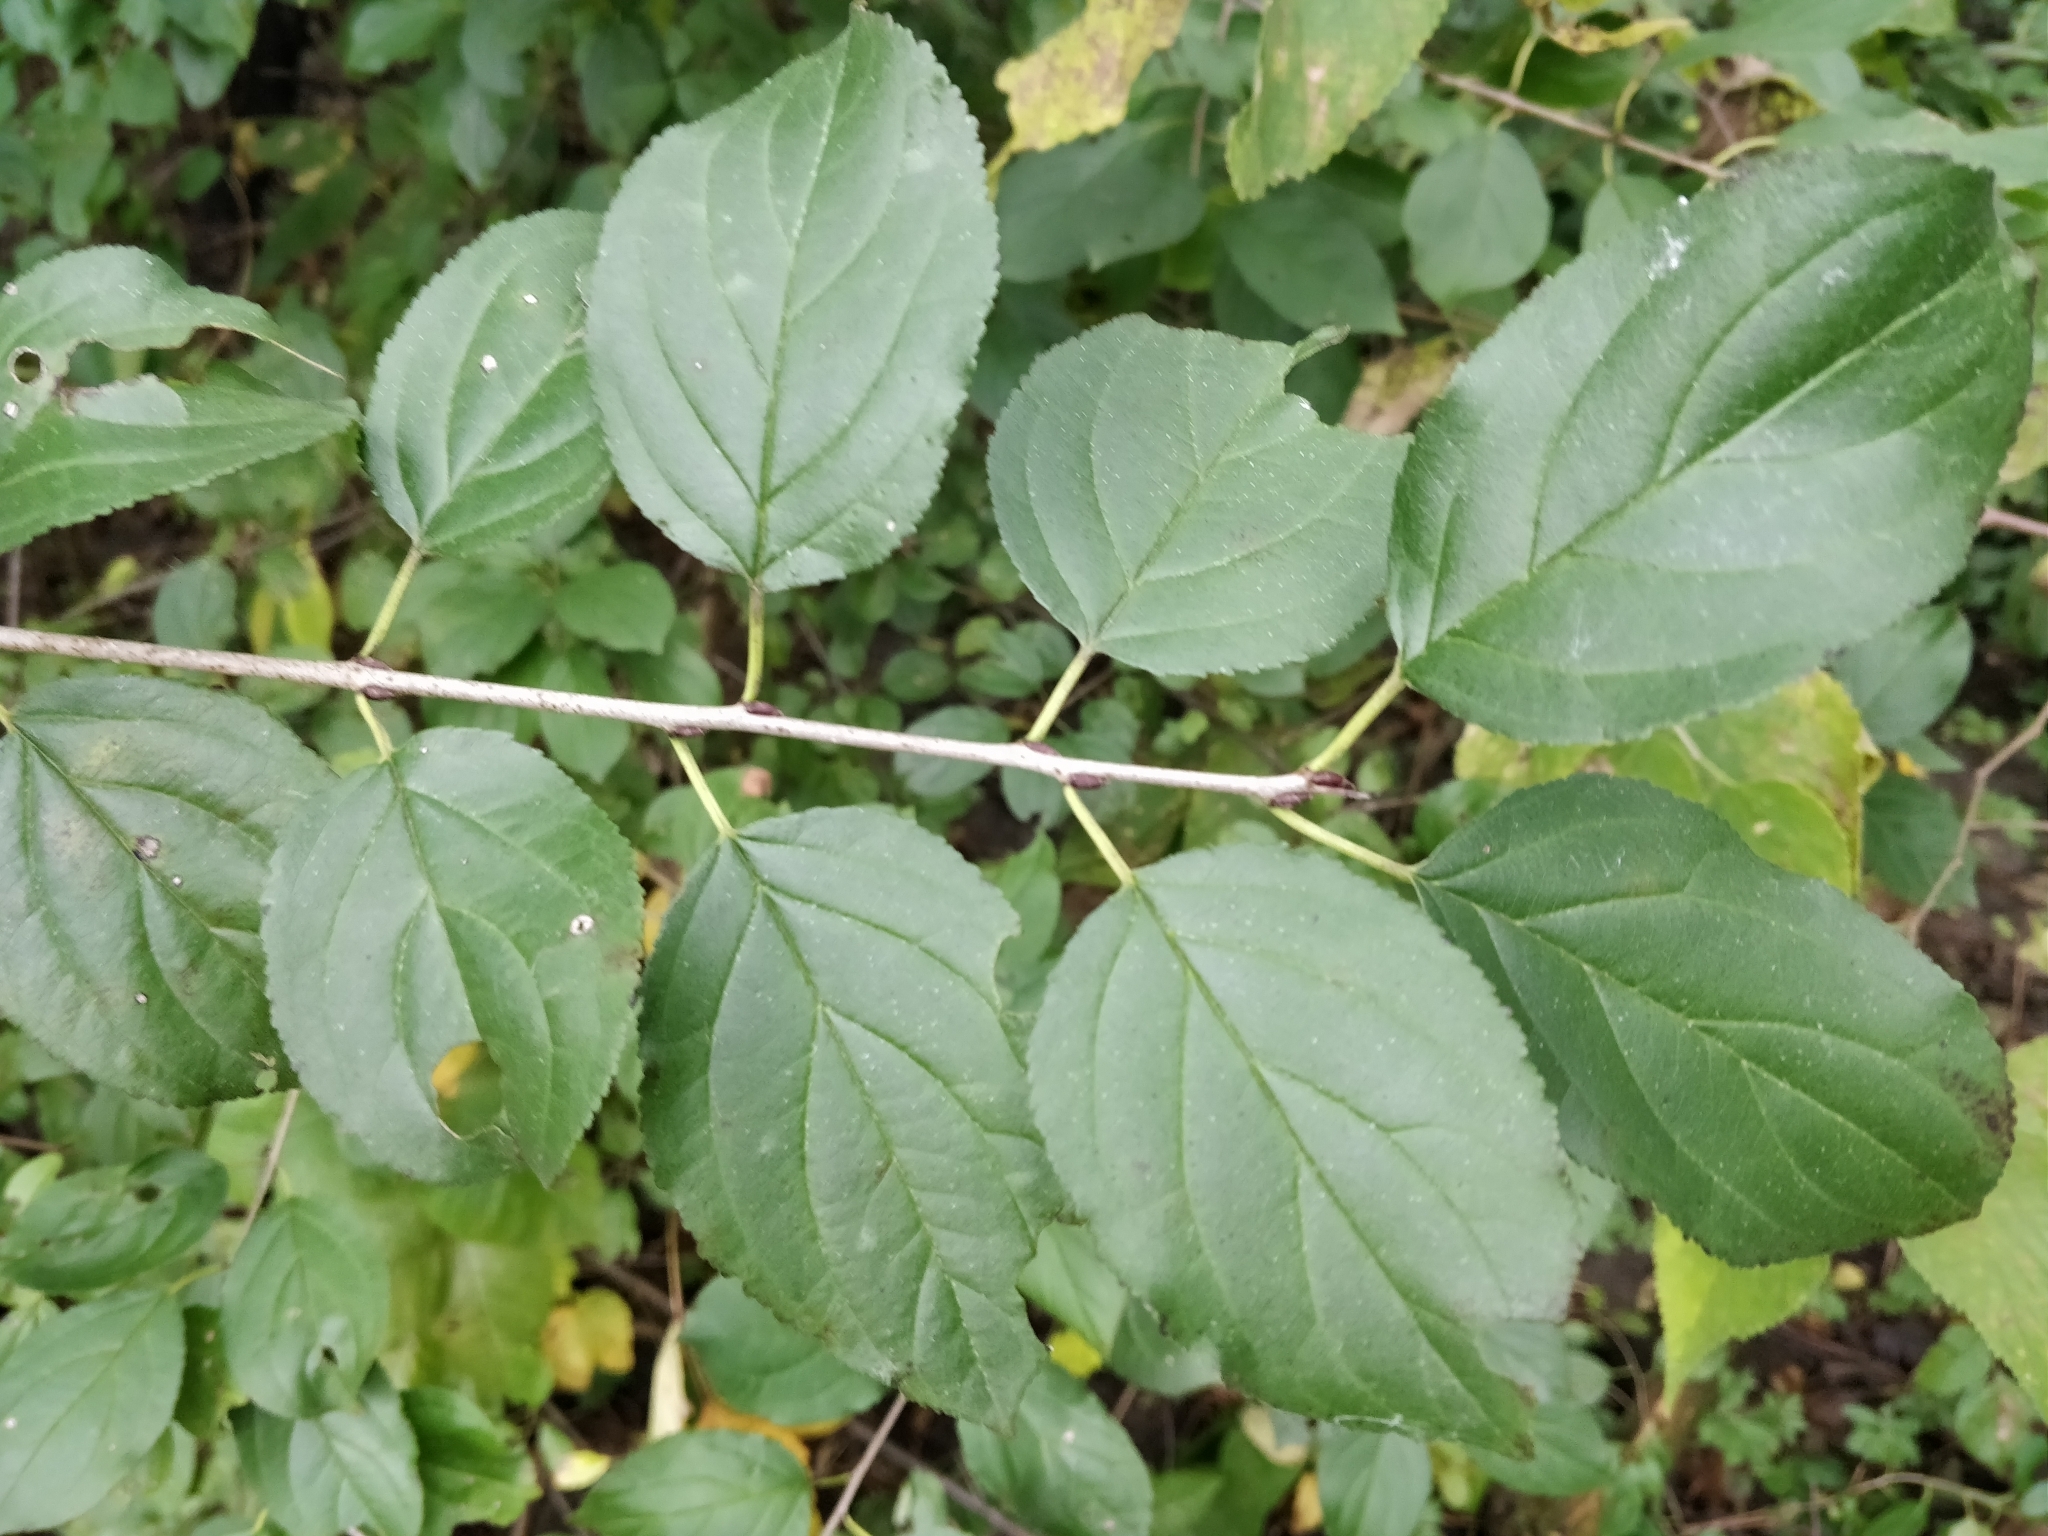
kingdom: Plantae
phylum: Tracheophyta
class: Magnoliopsida
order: Rosales
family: Rhamnaceae
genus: Rhamnus
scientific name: Rhamnus cathartica
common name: Common buckthorn
